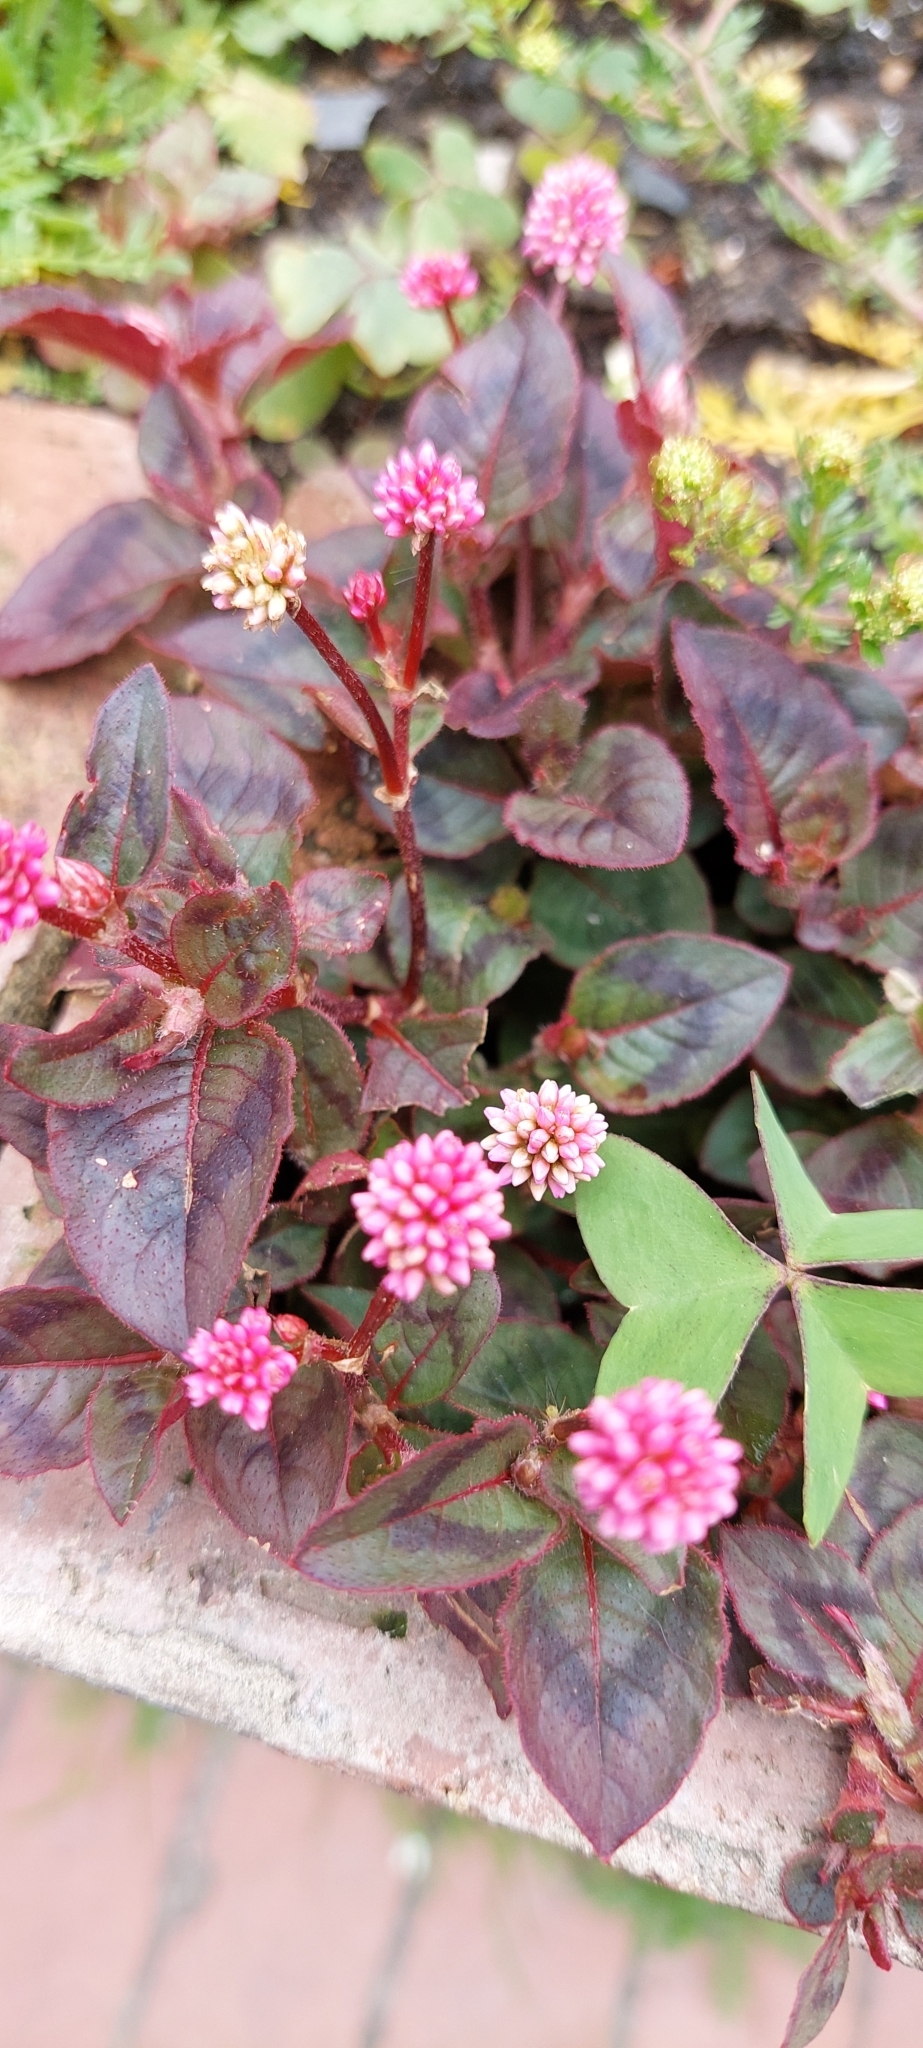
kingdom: Plantae
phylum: Tracheophyta
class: Magnoliopsida
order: Caryophyllales
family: Polygonaceae
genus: Persicaria
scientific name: Persicaria capitata
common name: Pinkhead smartweed
